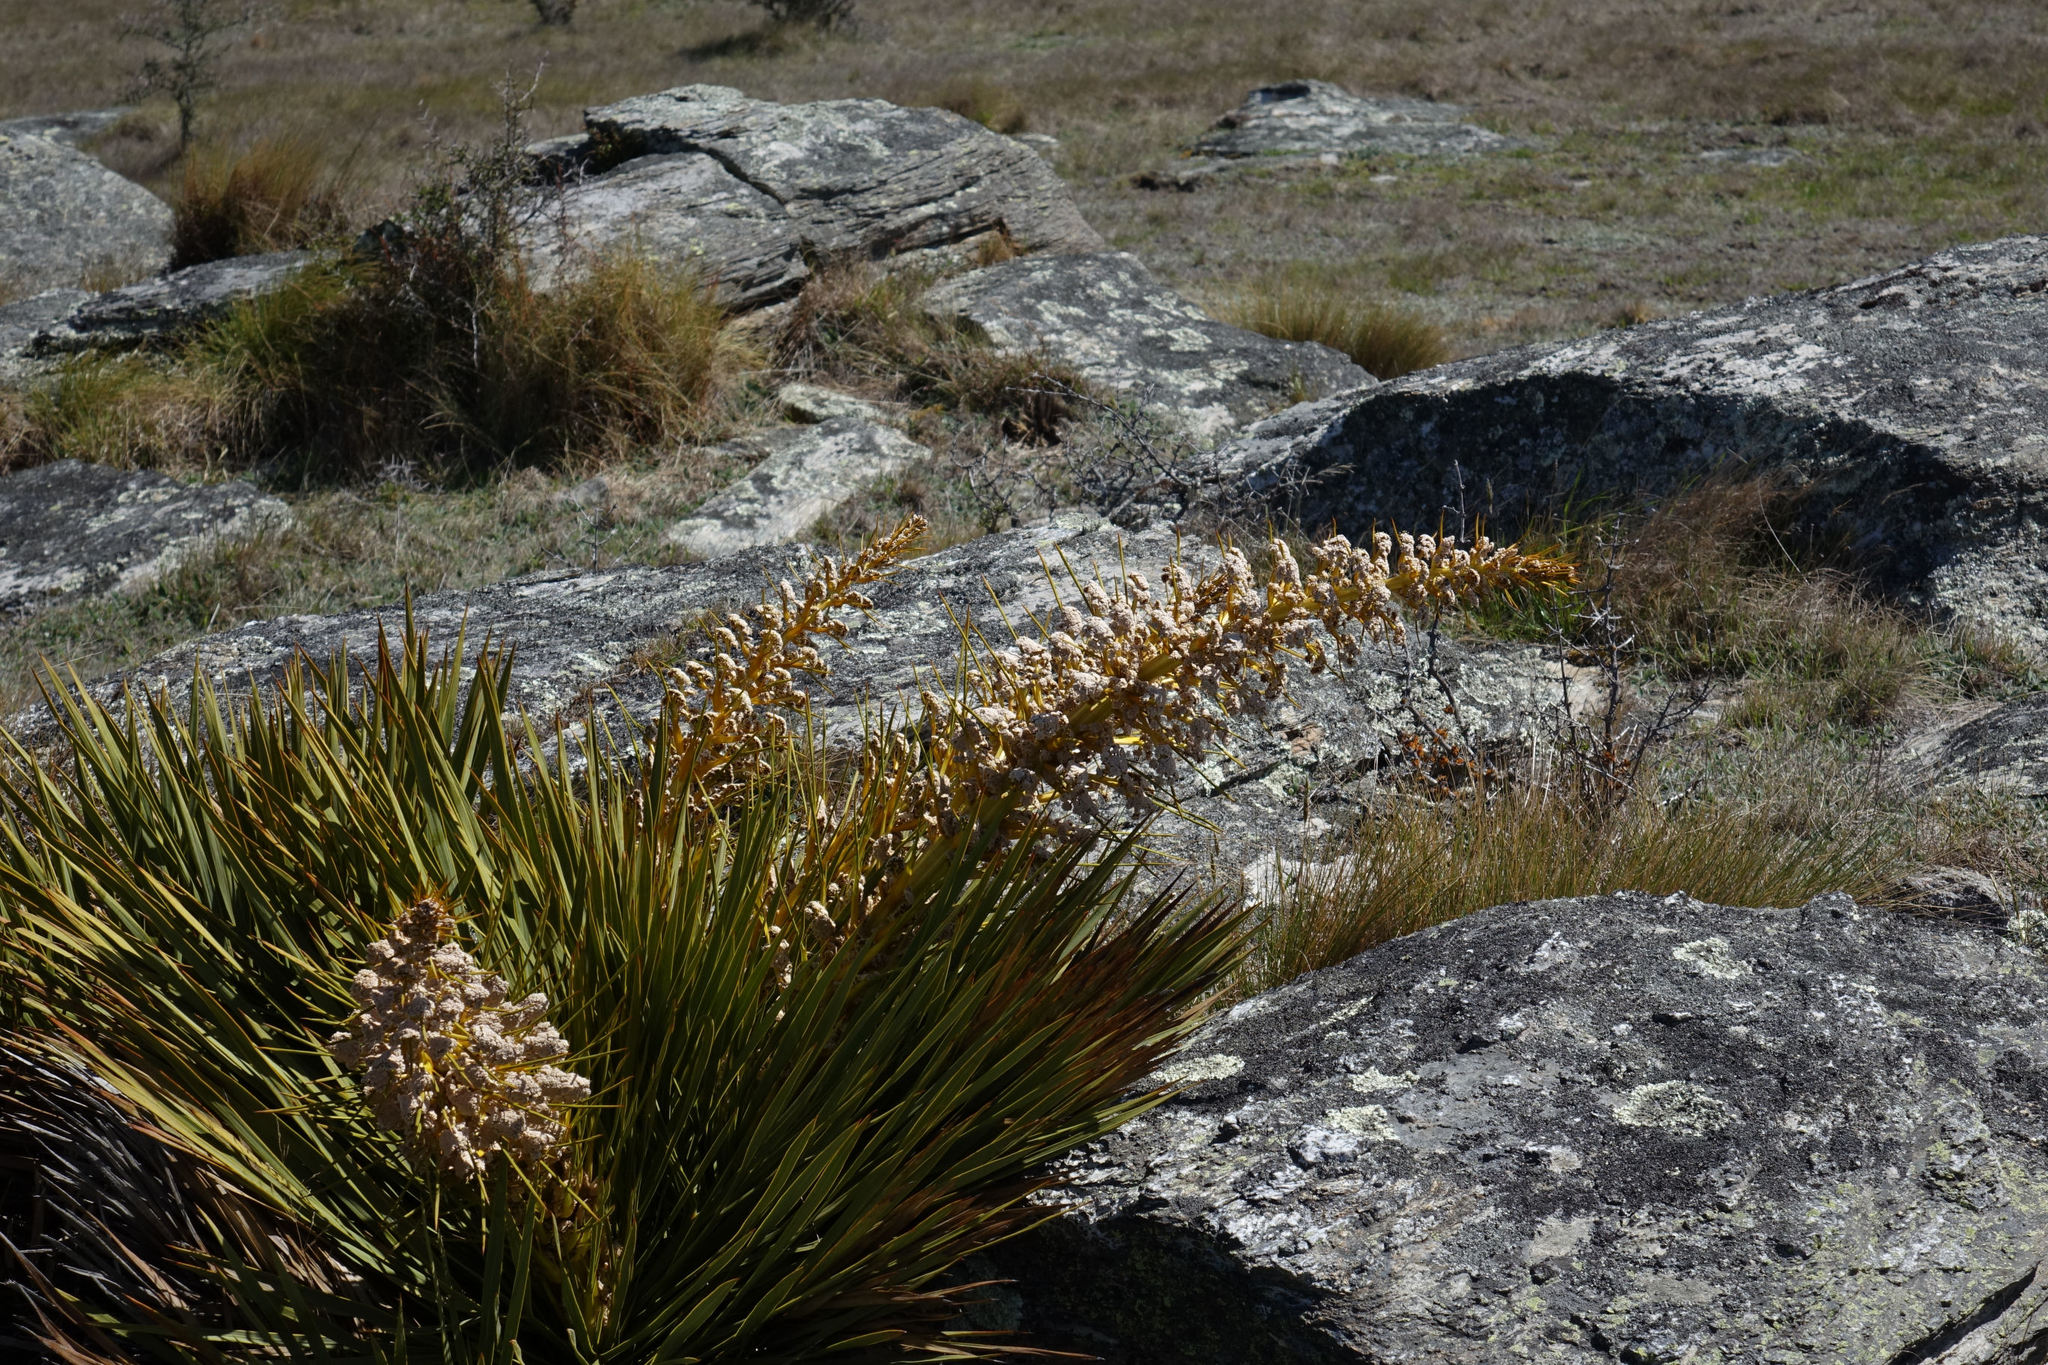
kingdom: Plantae
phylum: Tracheophyta
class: Magnoliopsida
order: Apiales
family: Apiaceae
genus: Aciphylla
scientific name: Aciphylla aurea
